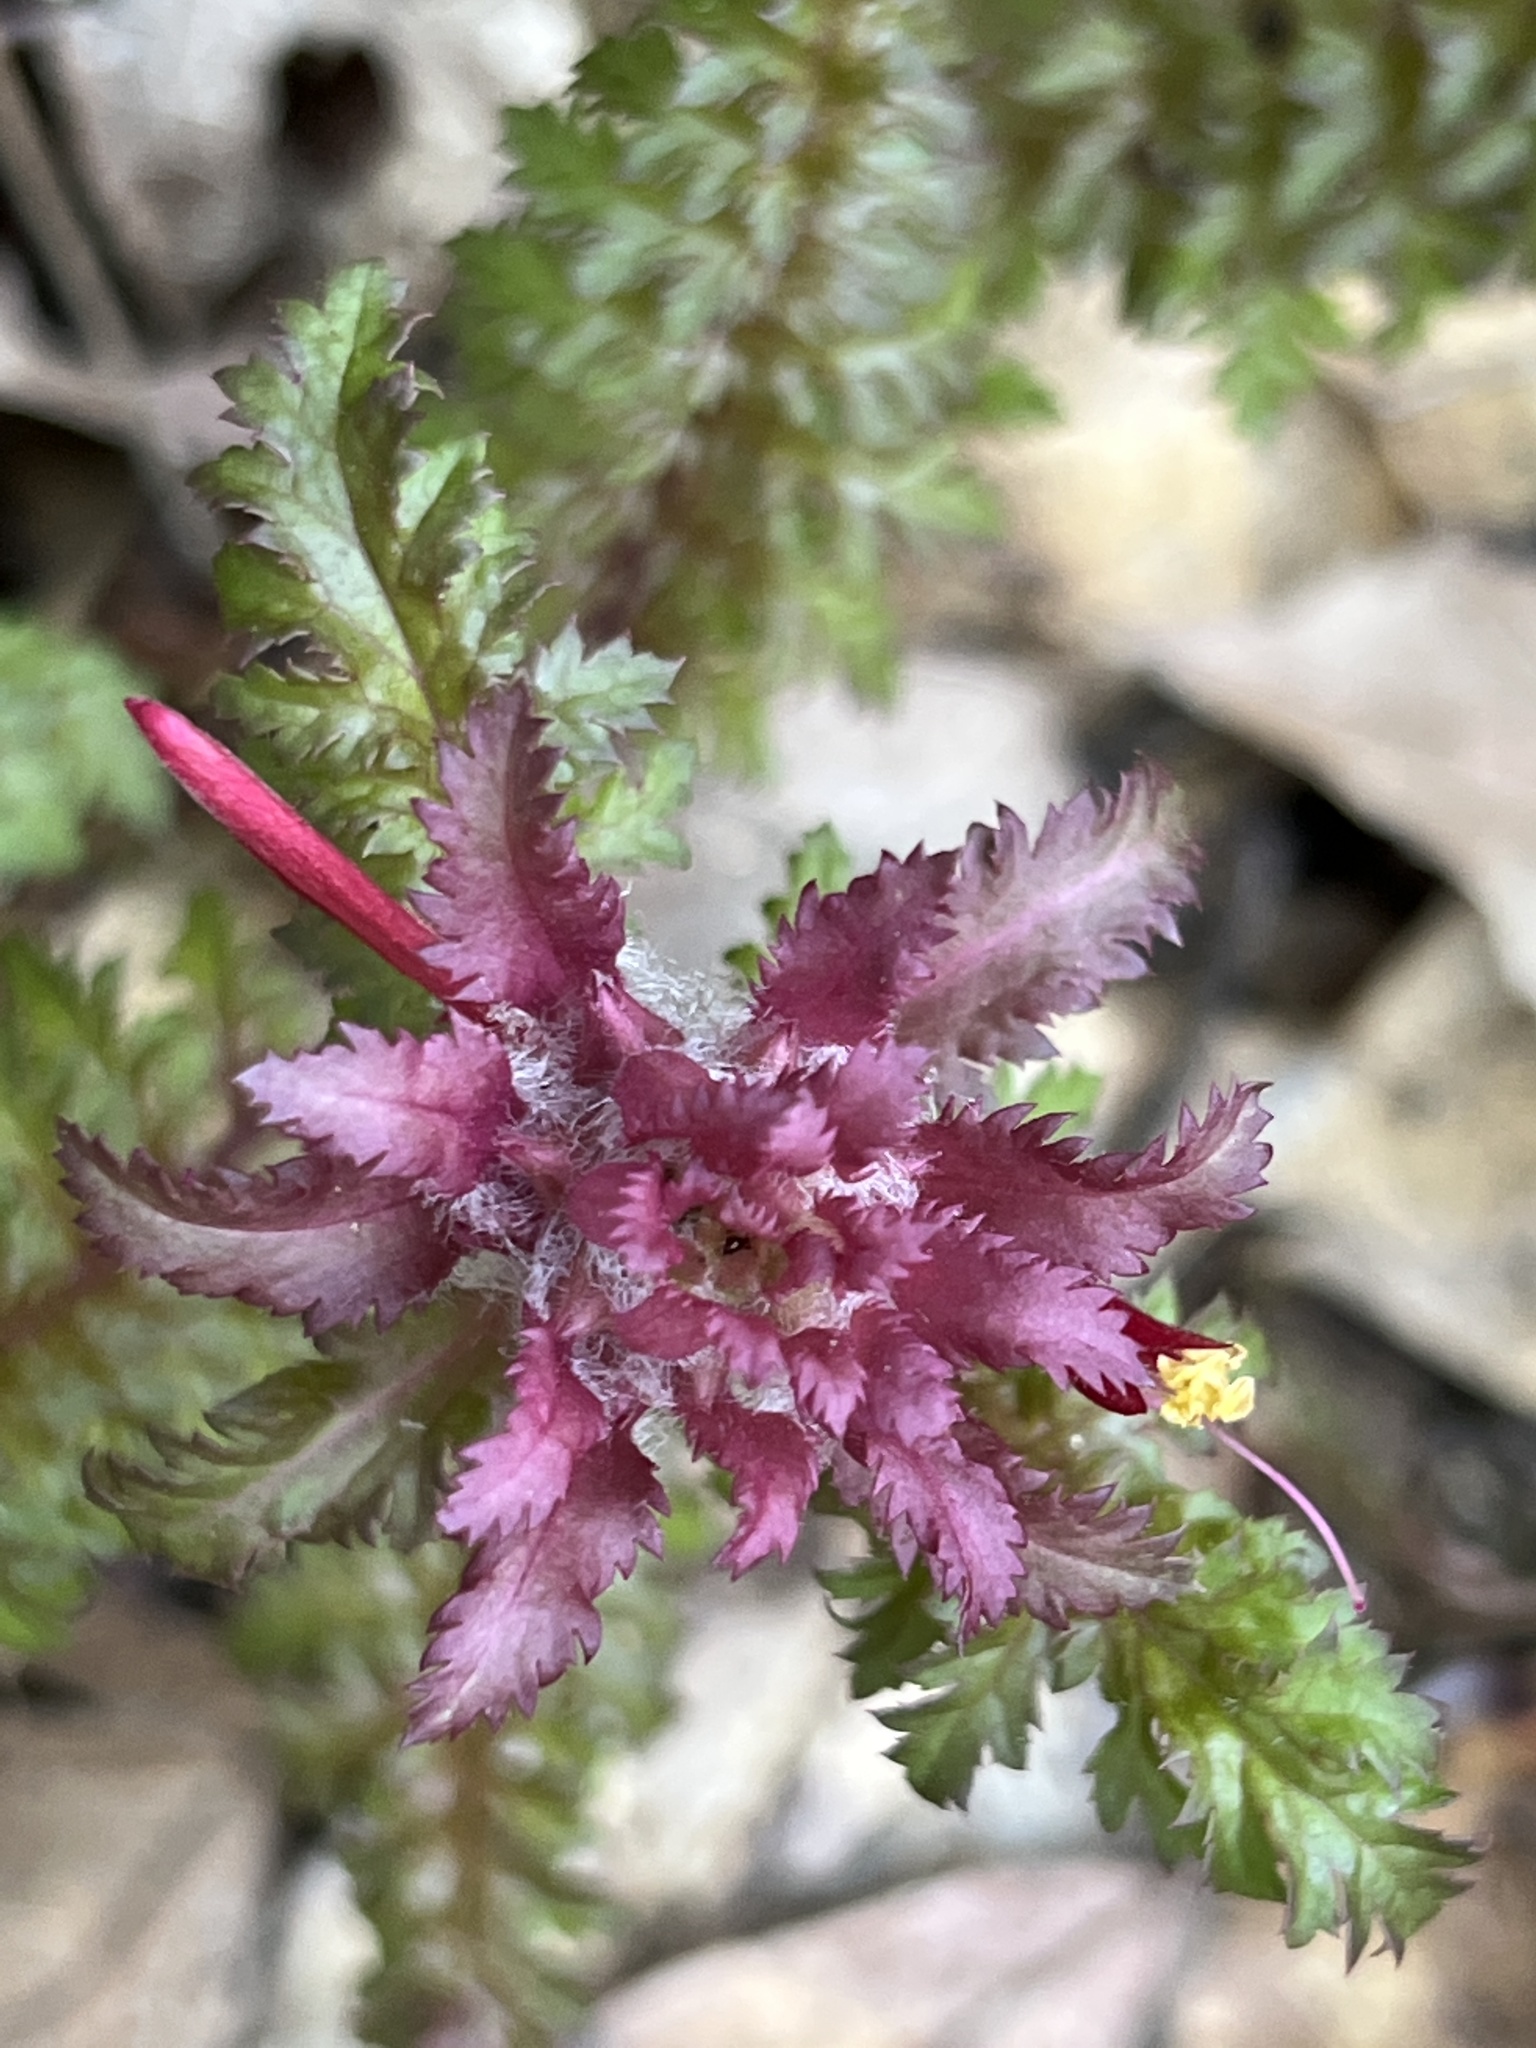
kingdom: Plantae
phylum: Tracheophyta
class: Magnoliopsida
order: Lamiales
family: Orobanchaceae
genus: Pedicularis
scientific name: Pedicularis densiflora
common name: Indian warrior
